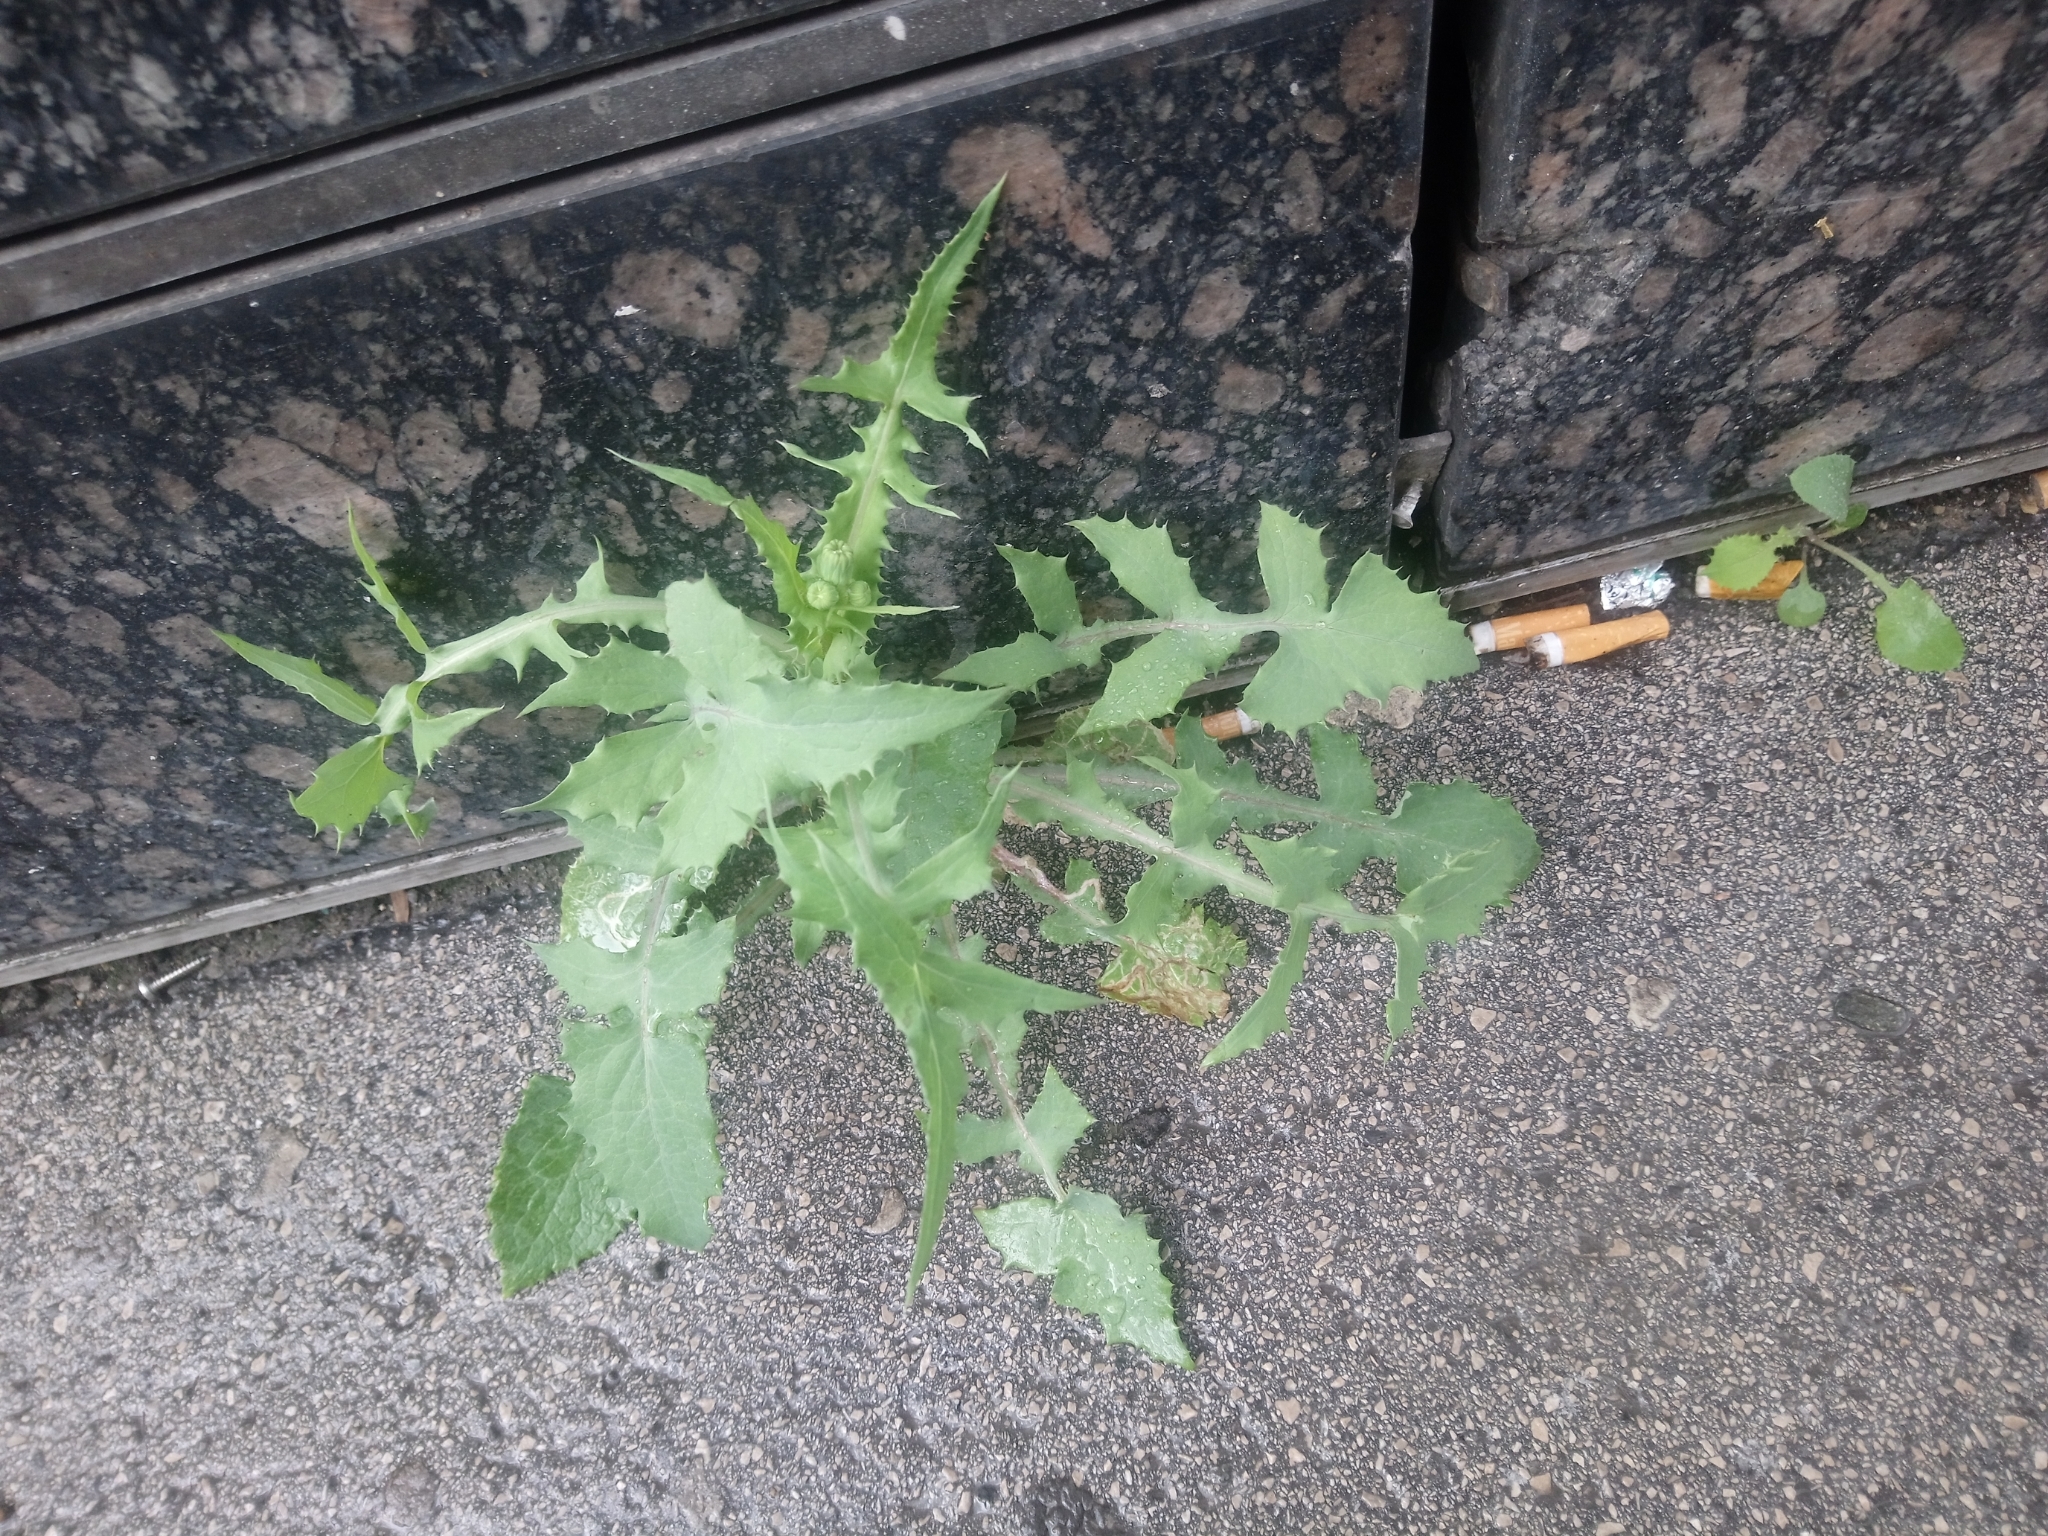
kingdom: Plantae
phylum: Tracheophyta
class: Magnoliopsida
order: Asterales
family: Asteraceae
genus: Sonchus
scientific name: Sonchus oleraceus
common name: Common sowthistle
